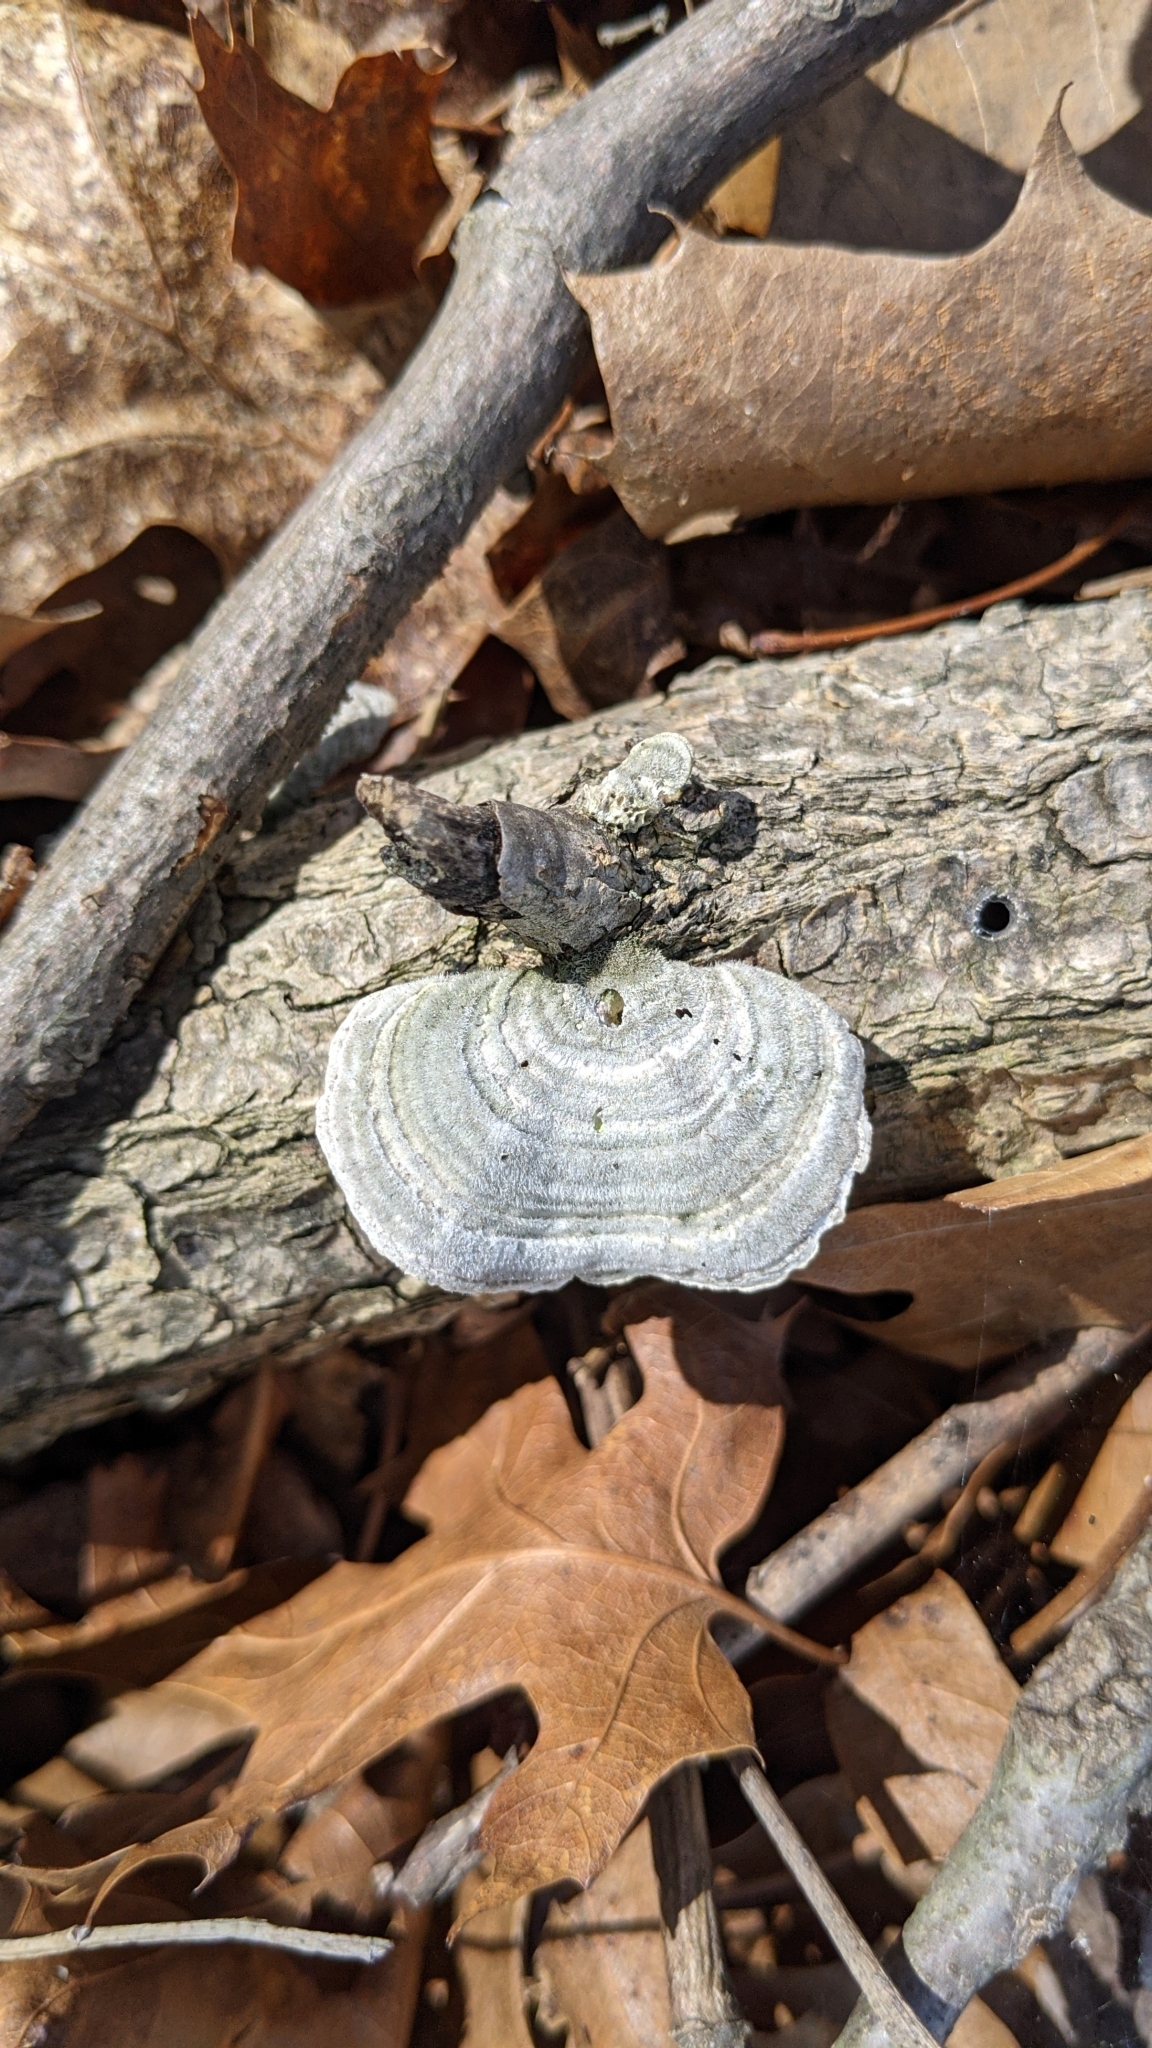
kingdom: Fungi
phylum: Basidiomycota
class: Agaricomycetes
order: Polyporales
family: Polyporaceae
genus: Lenzites
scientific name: Lenzites betulinus
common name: Birch mazegill
